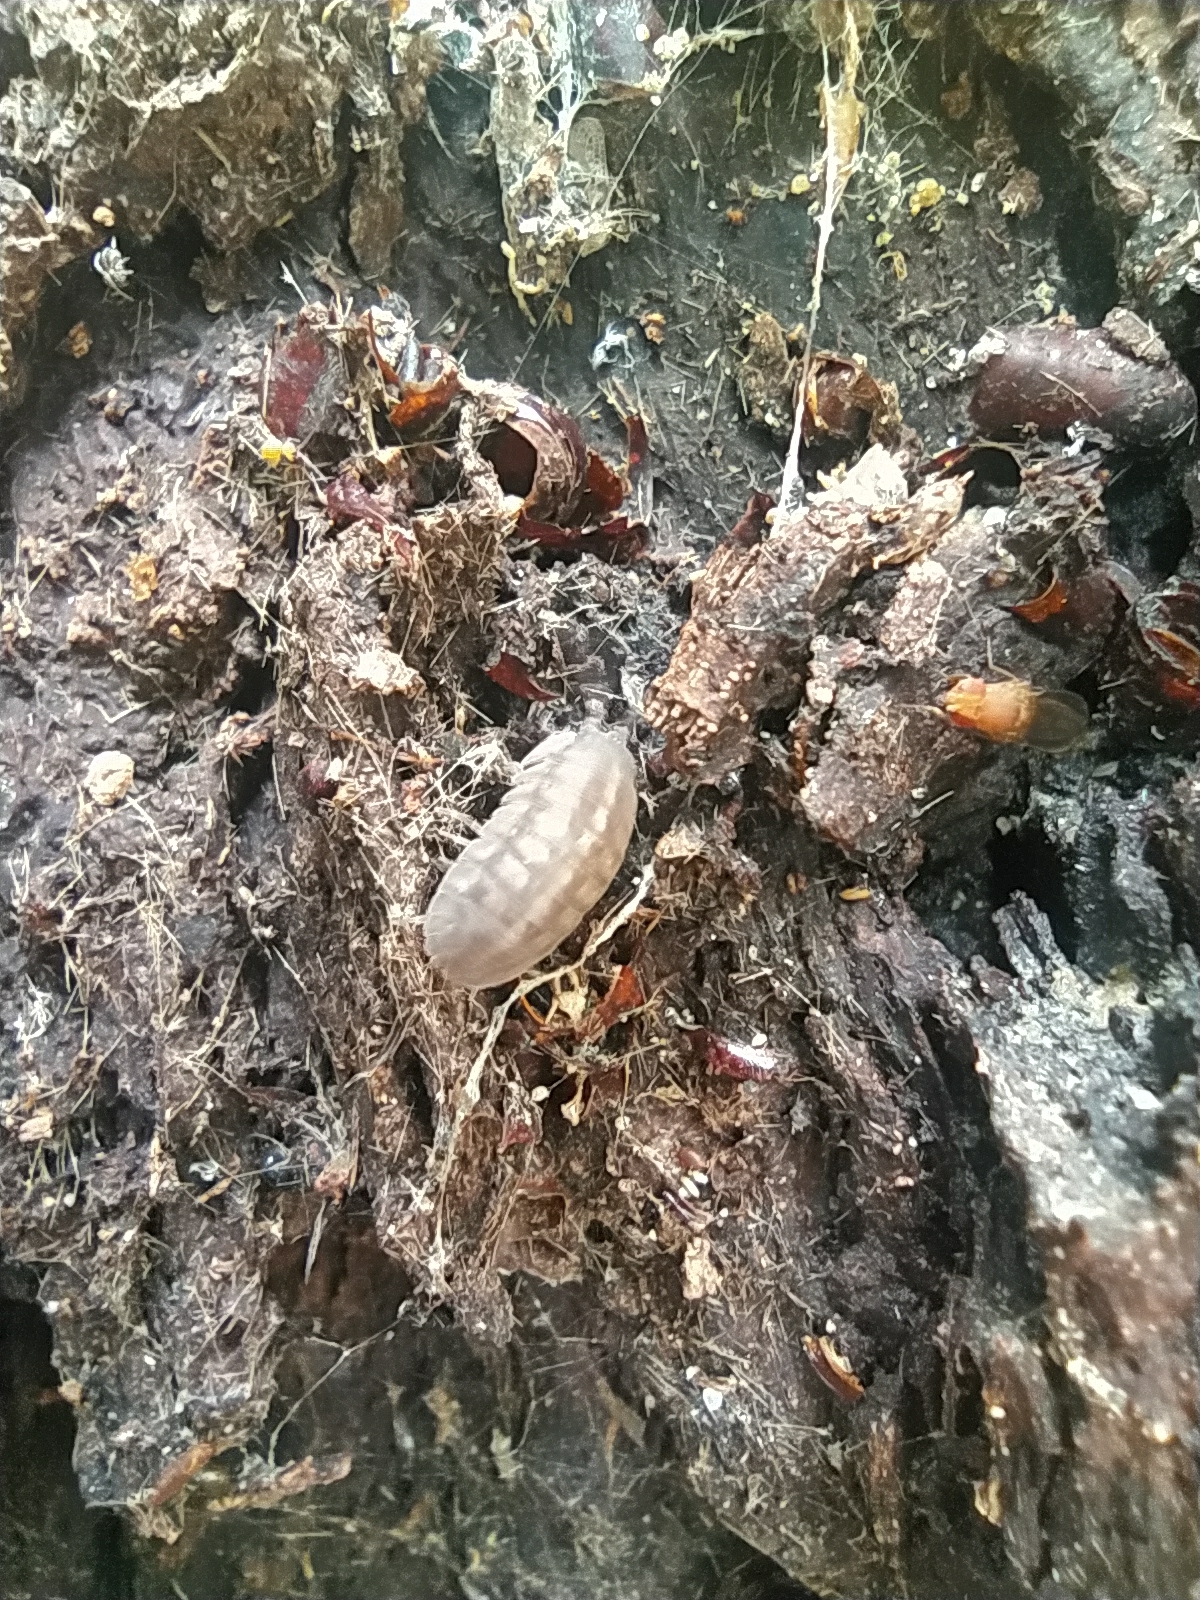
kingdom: Animalia
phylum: Arthropoda
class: Malacostraca
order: Isopoda
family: Armadillidiidae
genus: Armadillidium
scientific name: Armadillidium nasatum
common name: Isopod
